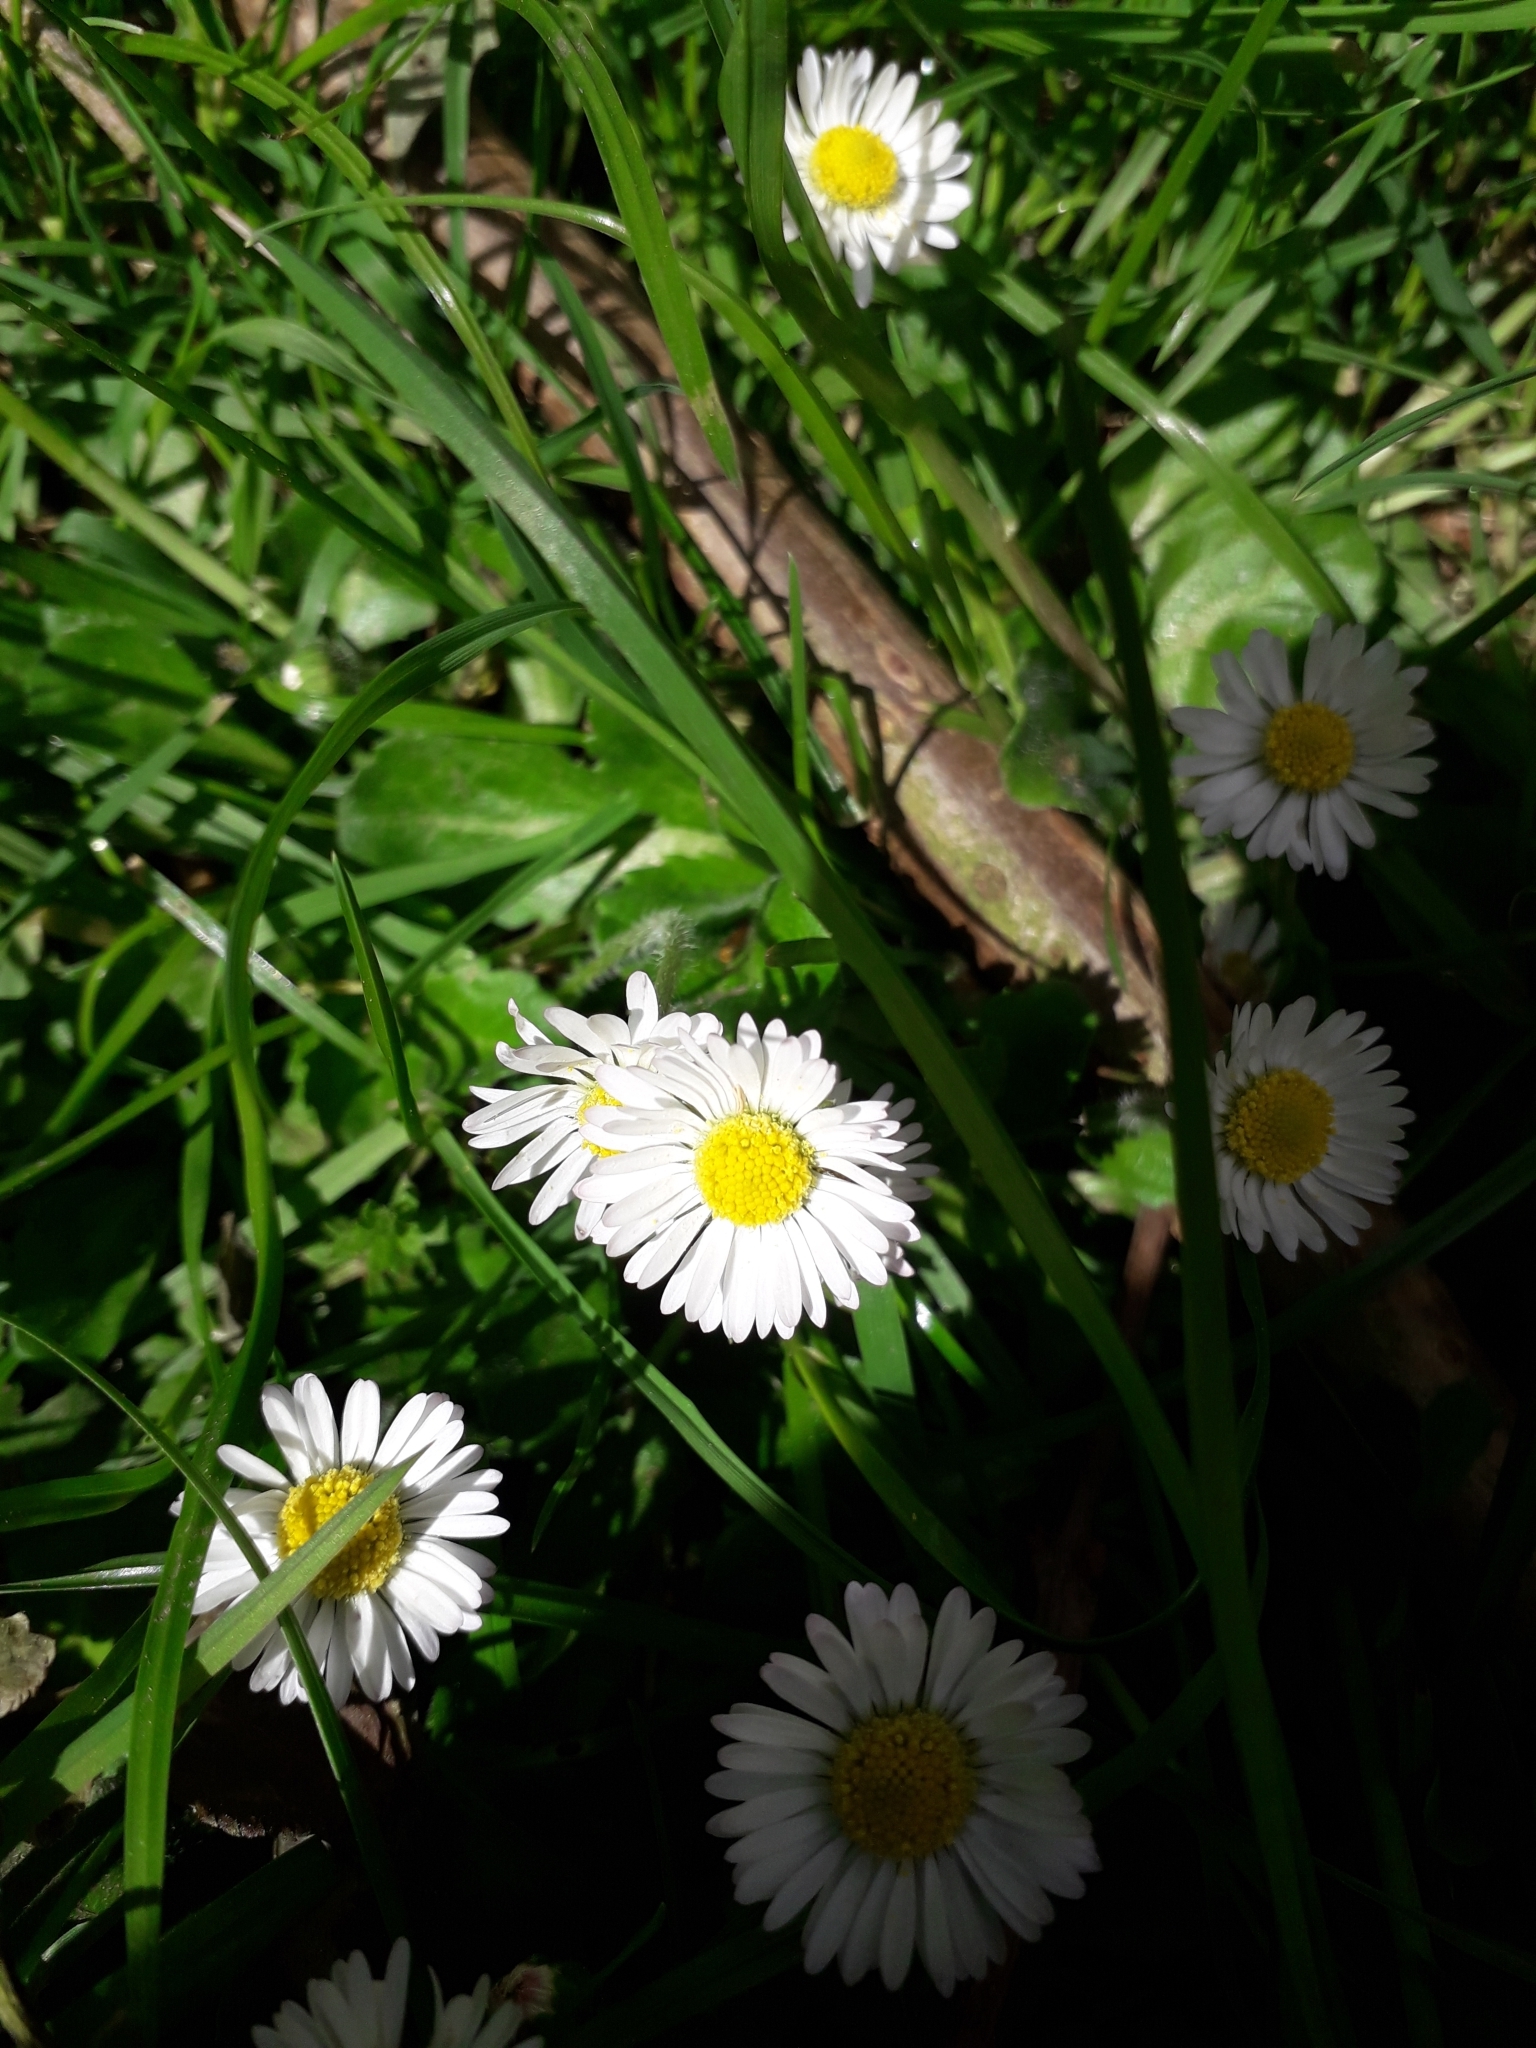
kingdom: Plantae
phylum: Tracheophyta
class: Magnoliopsida
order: Asterales
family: Asteraceae
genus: Bellis
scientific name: Bellis perennis
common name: Lawndaisy
